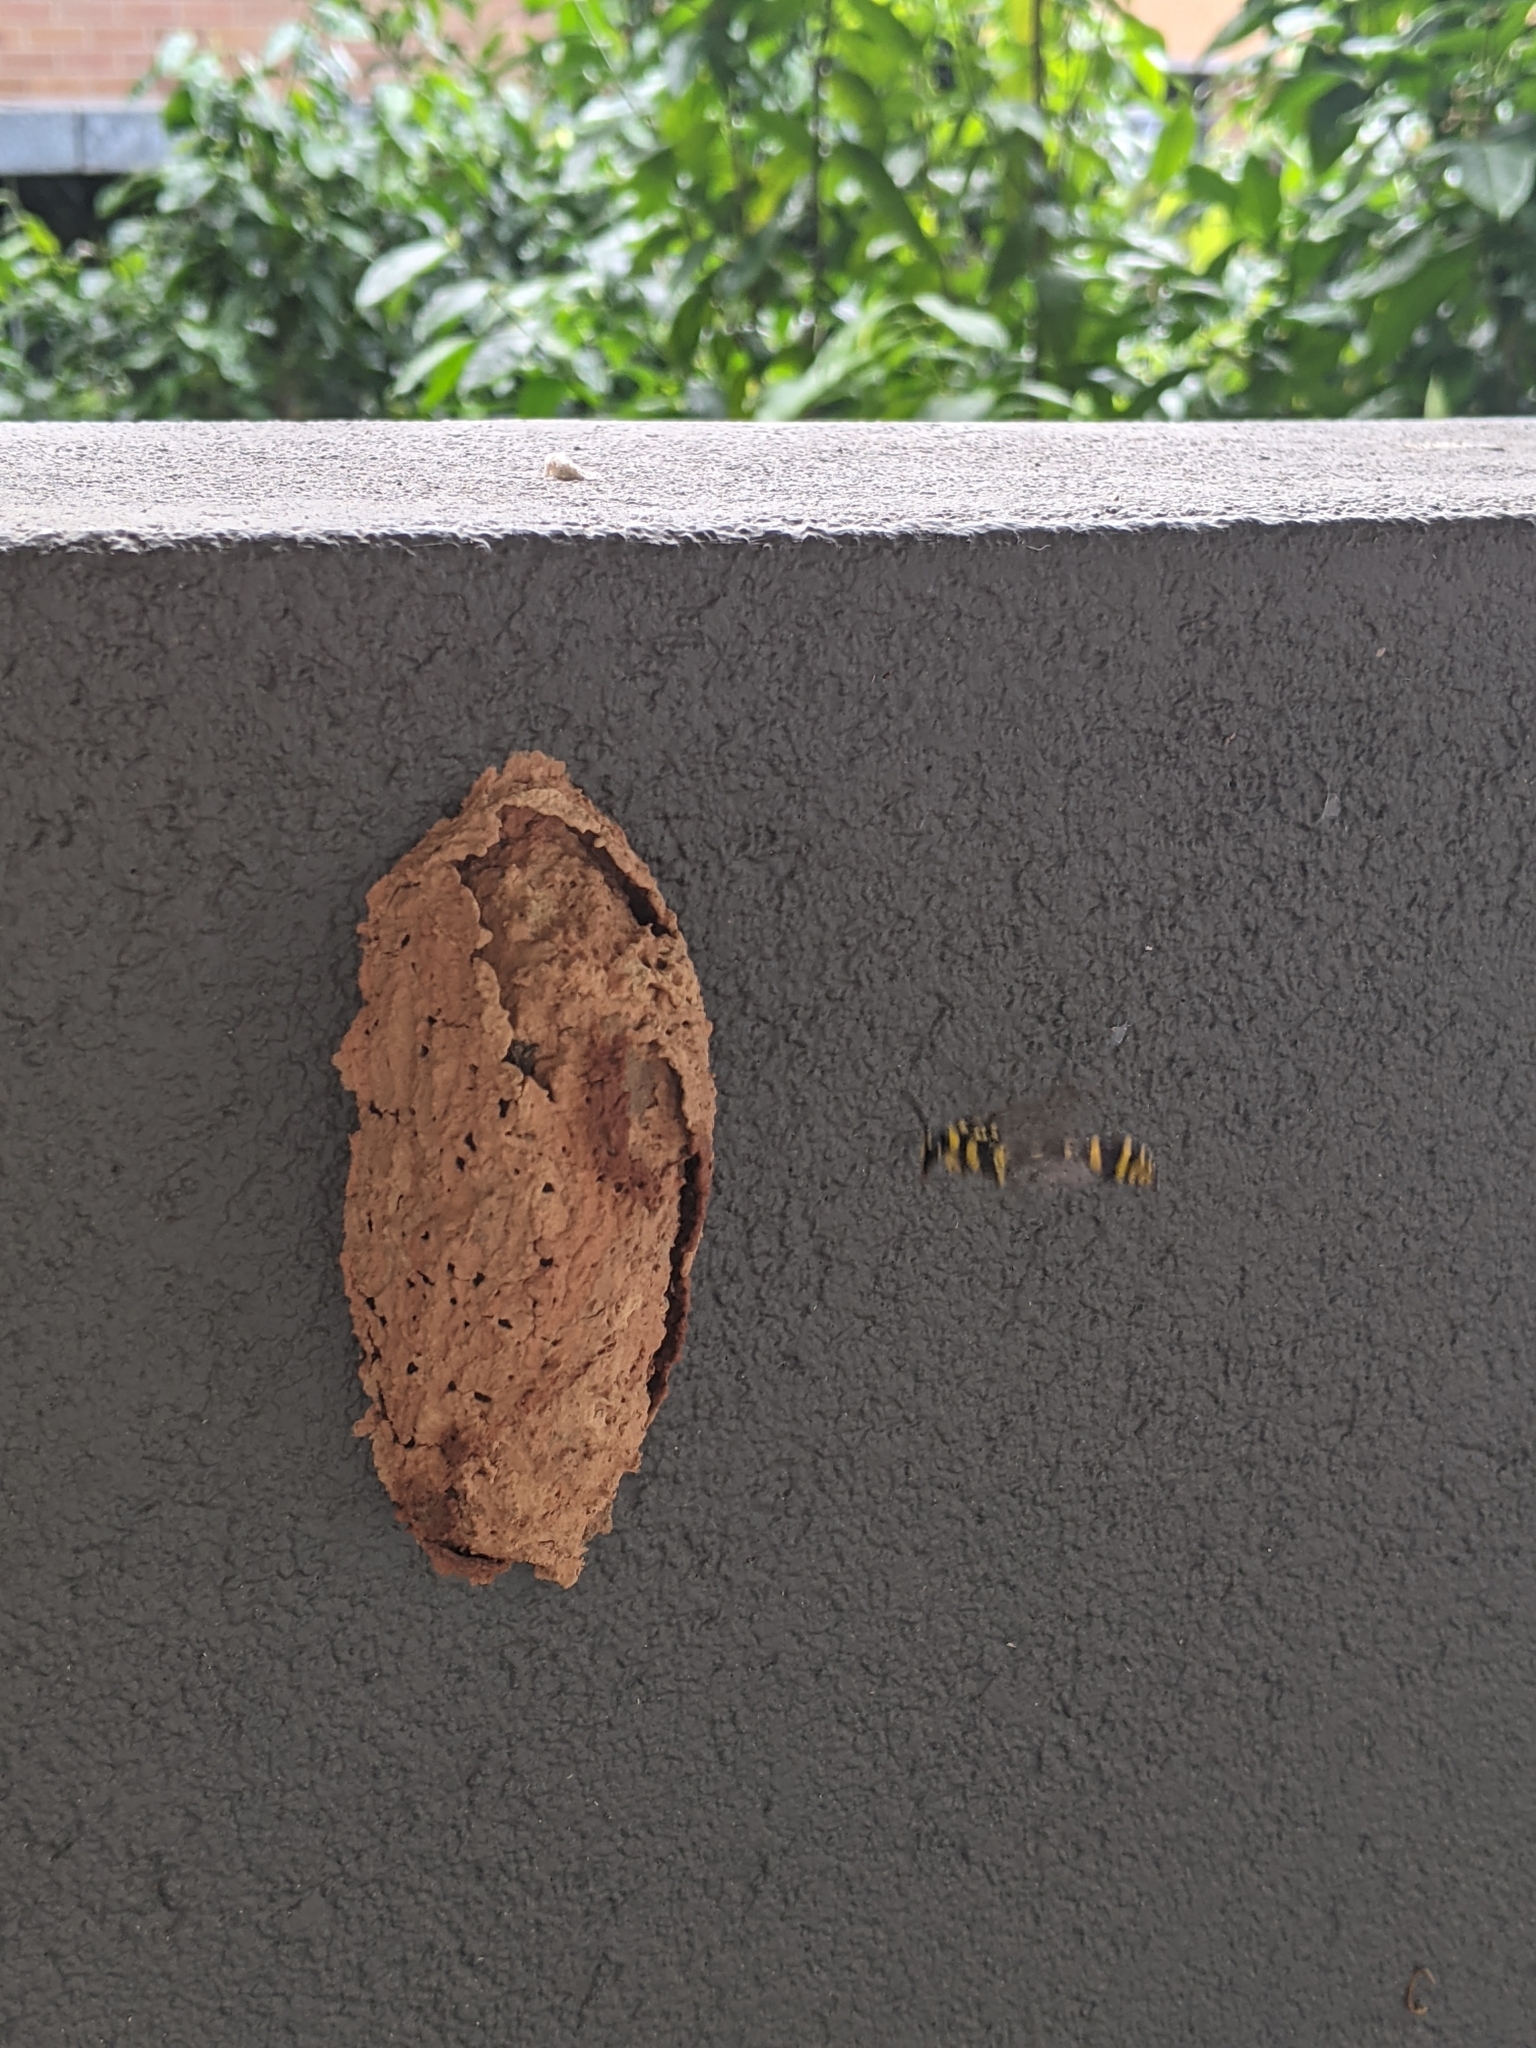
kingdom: Animalia
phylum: Arthropoda
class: Insecta
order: Hymenoptera
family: Eumenidae
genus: Phimenes
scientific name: Phimenes arcuatus
